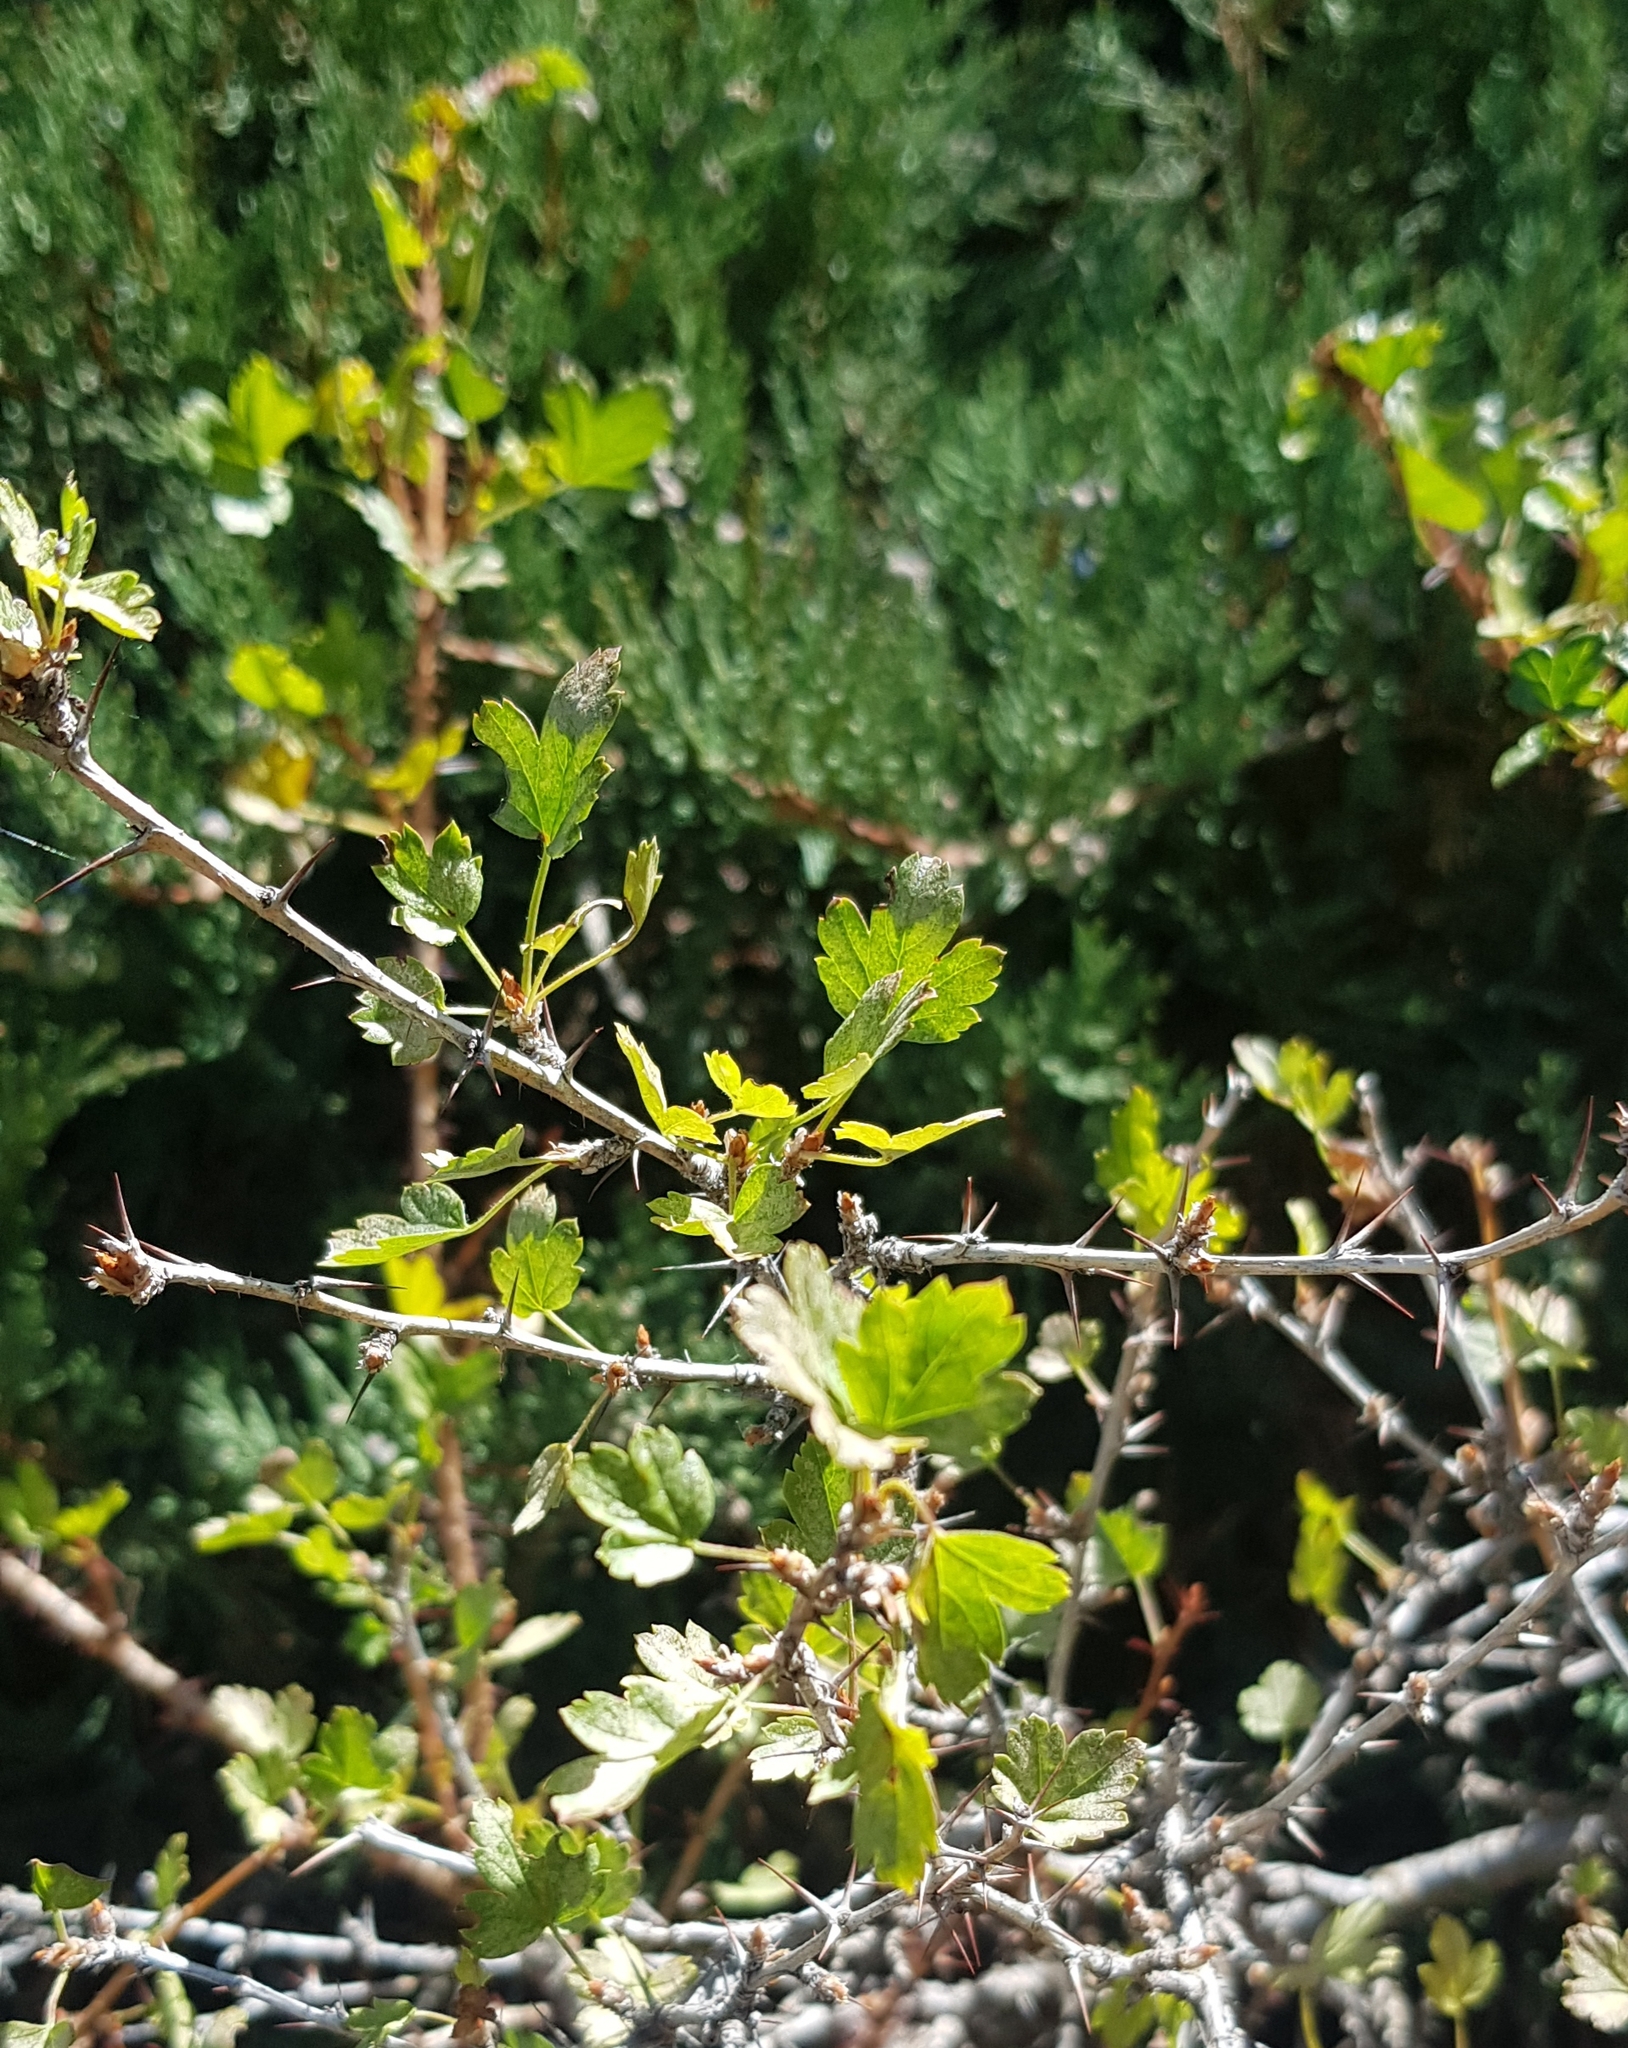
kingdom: Plantae
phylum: Tracheophyta
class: Magnoliopsida
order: Saxifragales
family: Grossulariaceae
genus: Ribes
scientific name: Ribes aciculare
